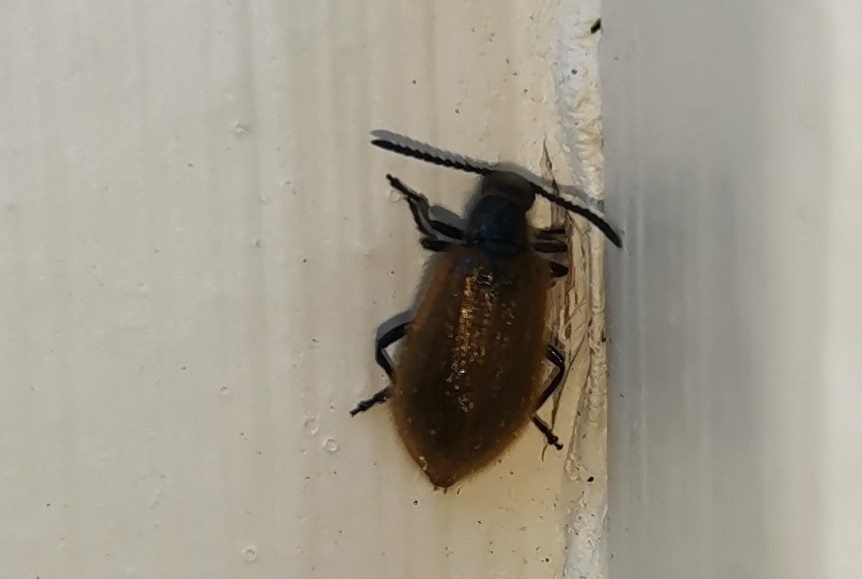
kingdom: Animalia
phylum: Arthropoda
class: Insecta
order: Coleoptera
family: Tenebrionidae
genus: Lagria
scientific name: Lagria hirta
